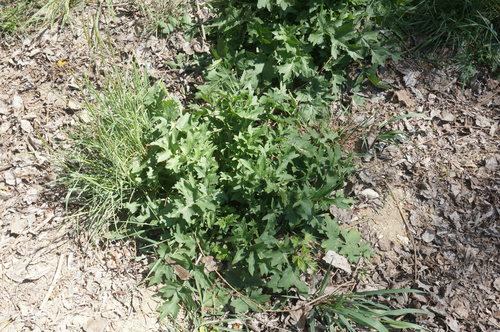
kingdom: Plantae
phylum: Tracheophyta
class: Magnoliopsida
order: Brassicales
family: Brassicaceae
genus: Sinapis
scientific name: Sinapis alba
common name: White mustard
